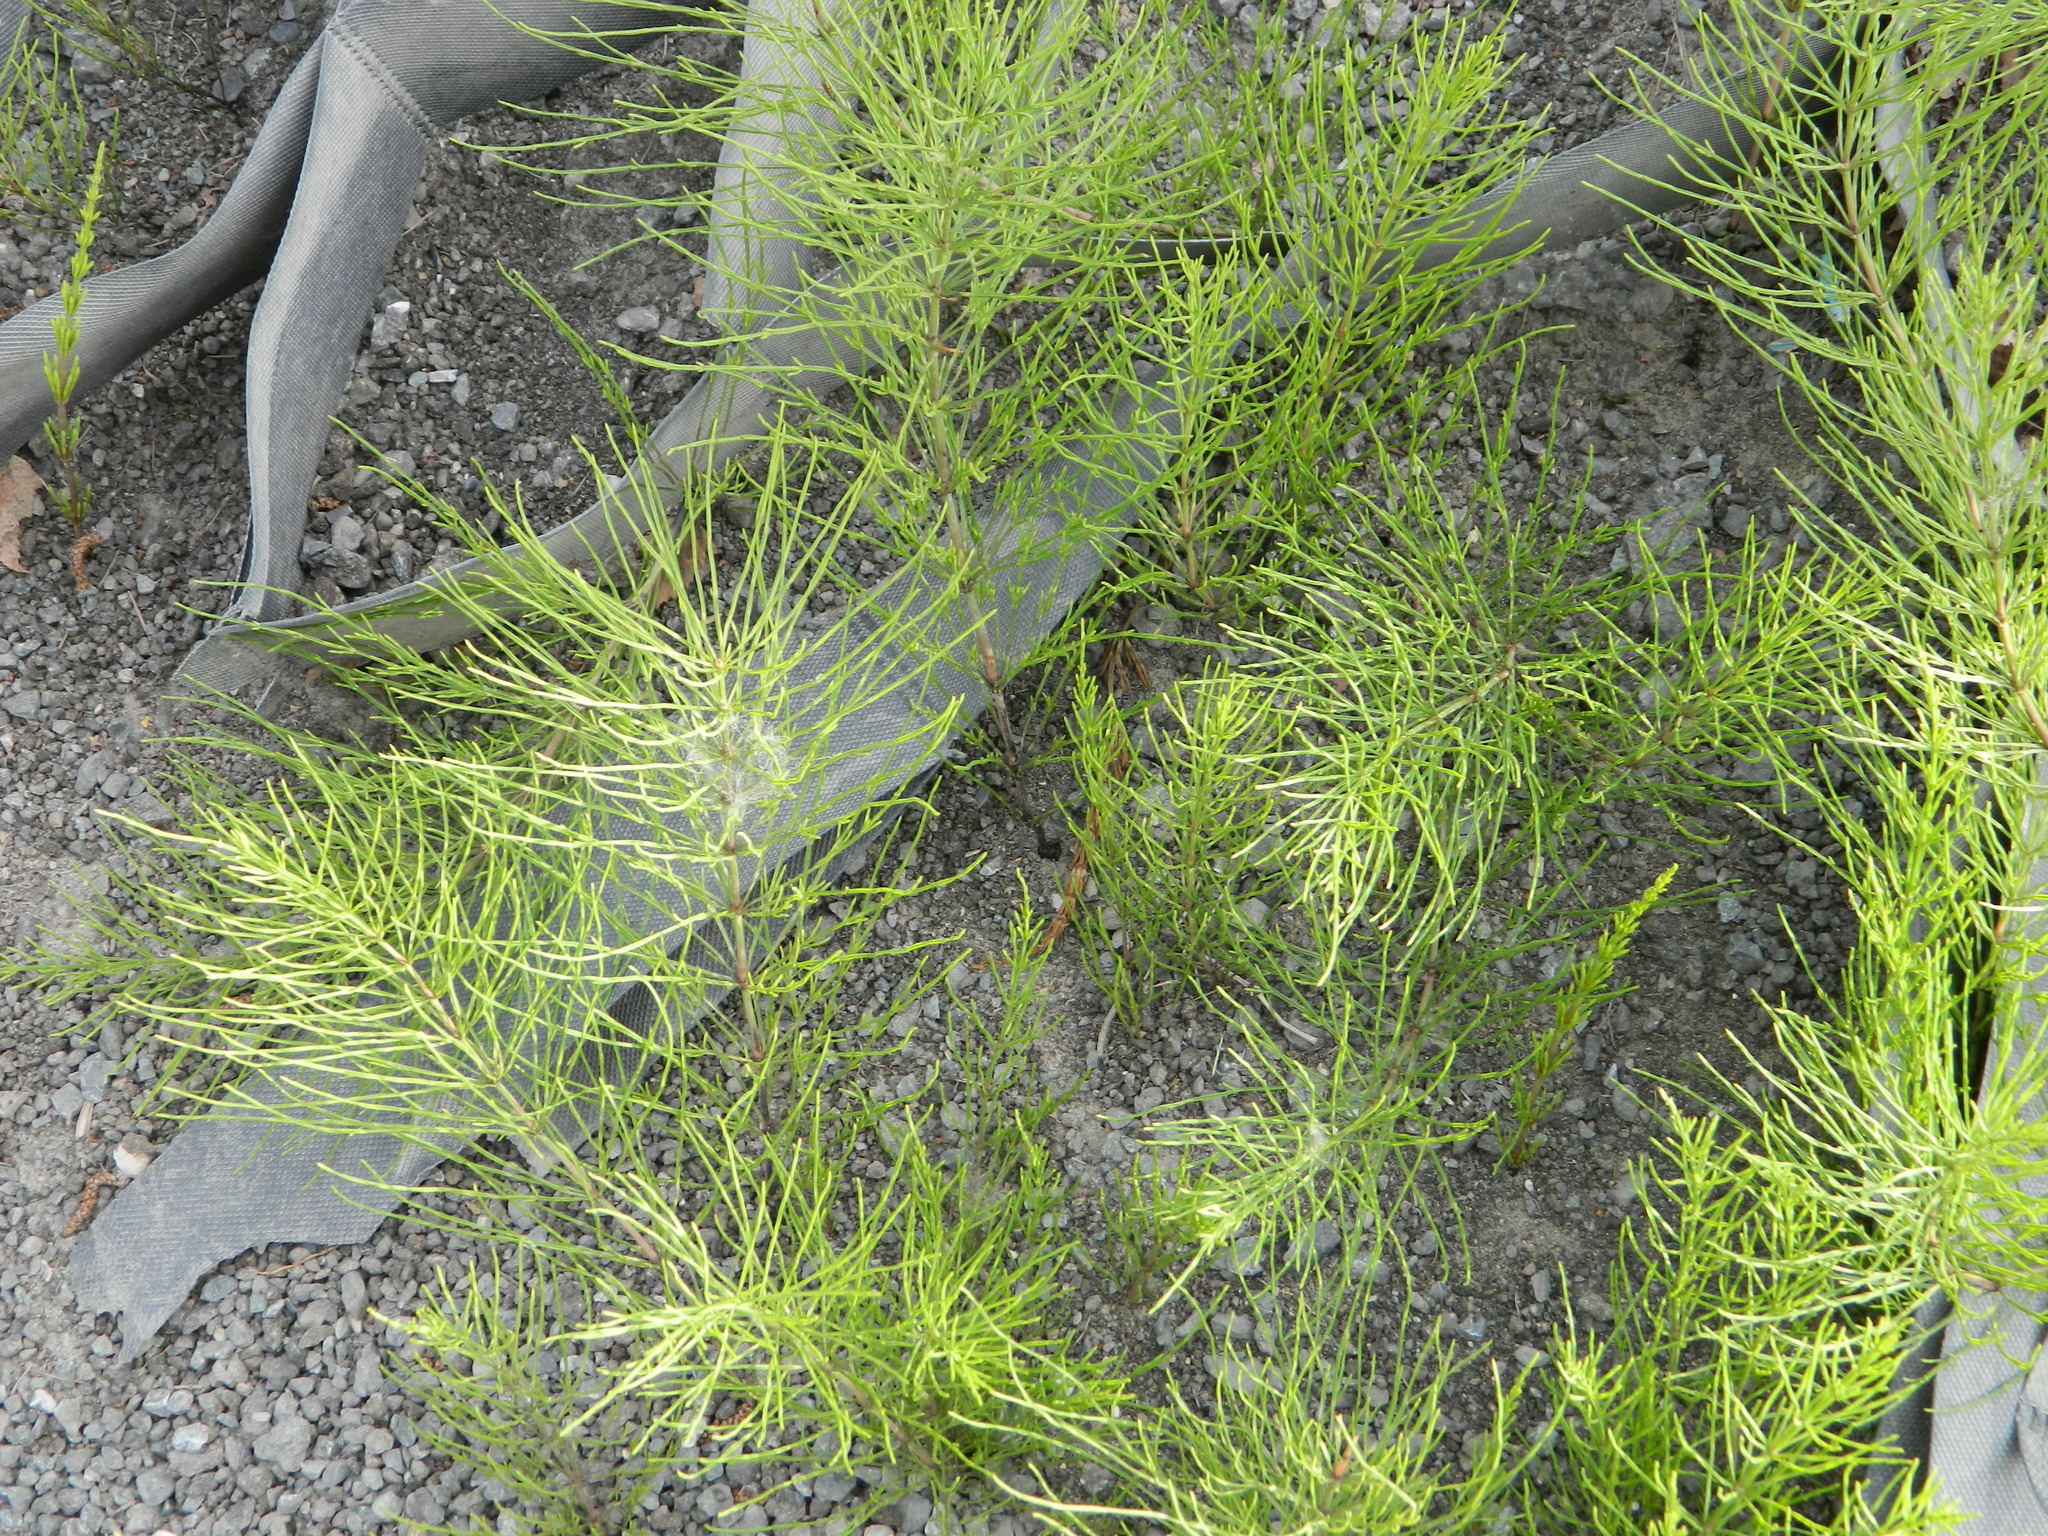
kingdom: Plantae
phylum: Tracheophyta
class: Polypodiopsida
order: Equisetales
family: Equisetaceae
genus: Equisetum
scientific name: Equisetum arvense
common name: Field horsetail
